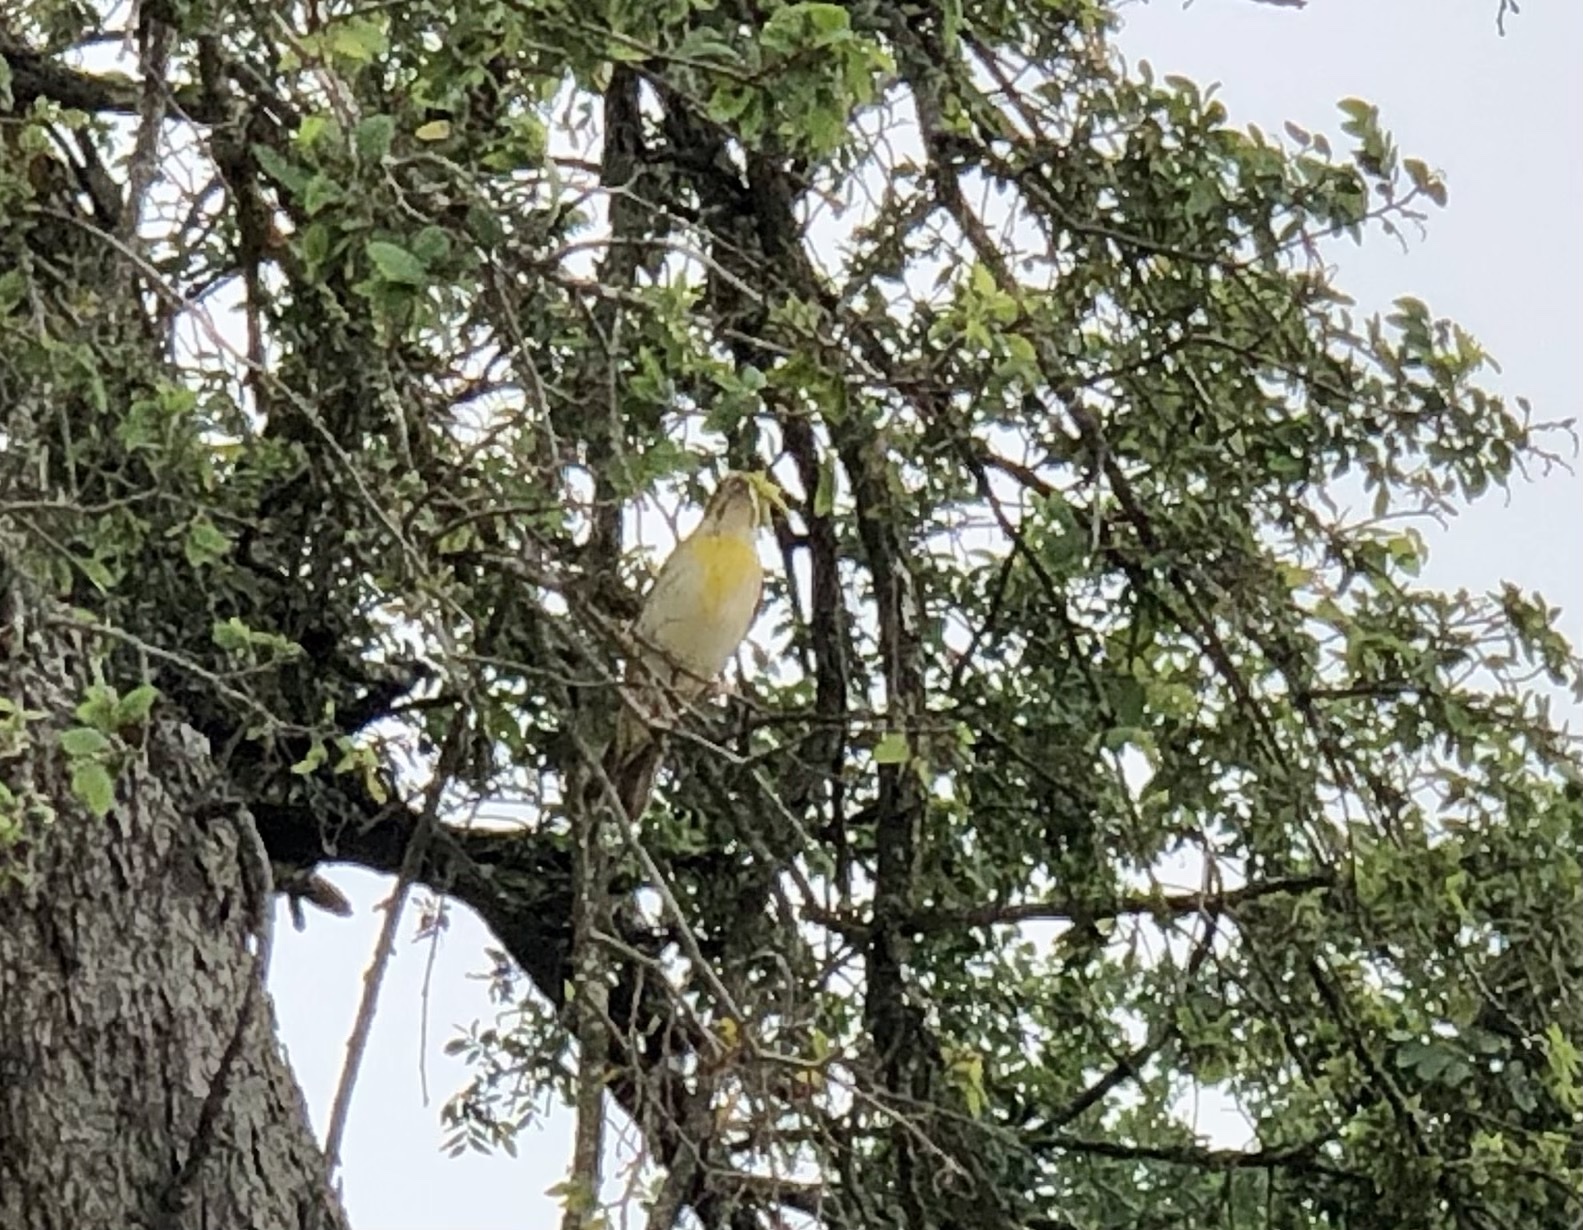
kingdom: Animalia
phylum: Chordata
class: Aves
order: Passeriformes
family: Cardinalidae
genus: Spiza
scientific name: Spiza americana
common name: Dickcissel
